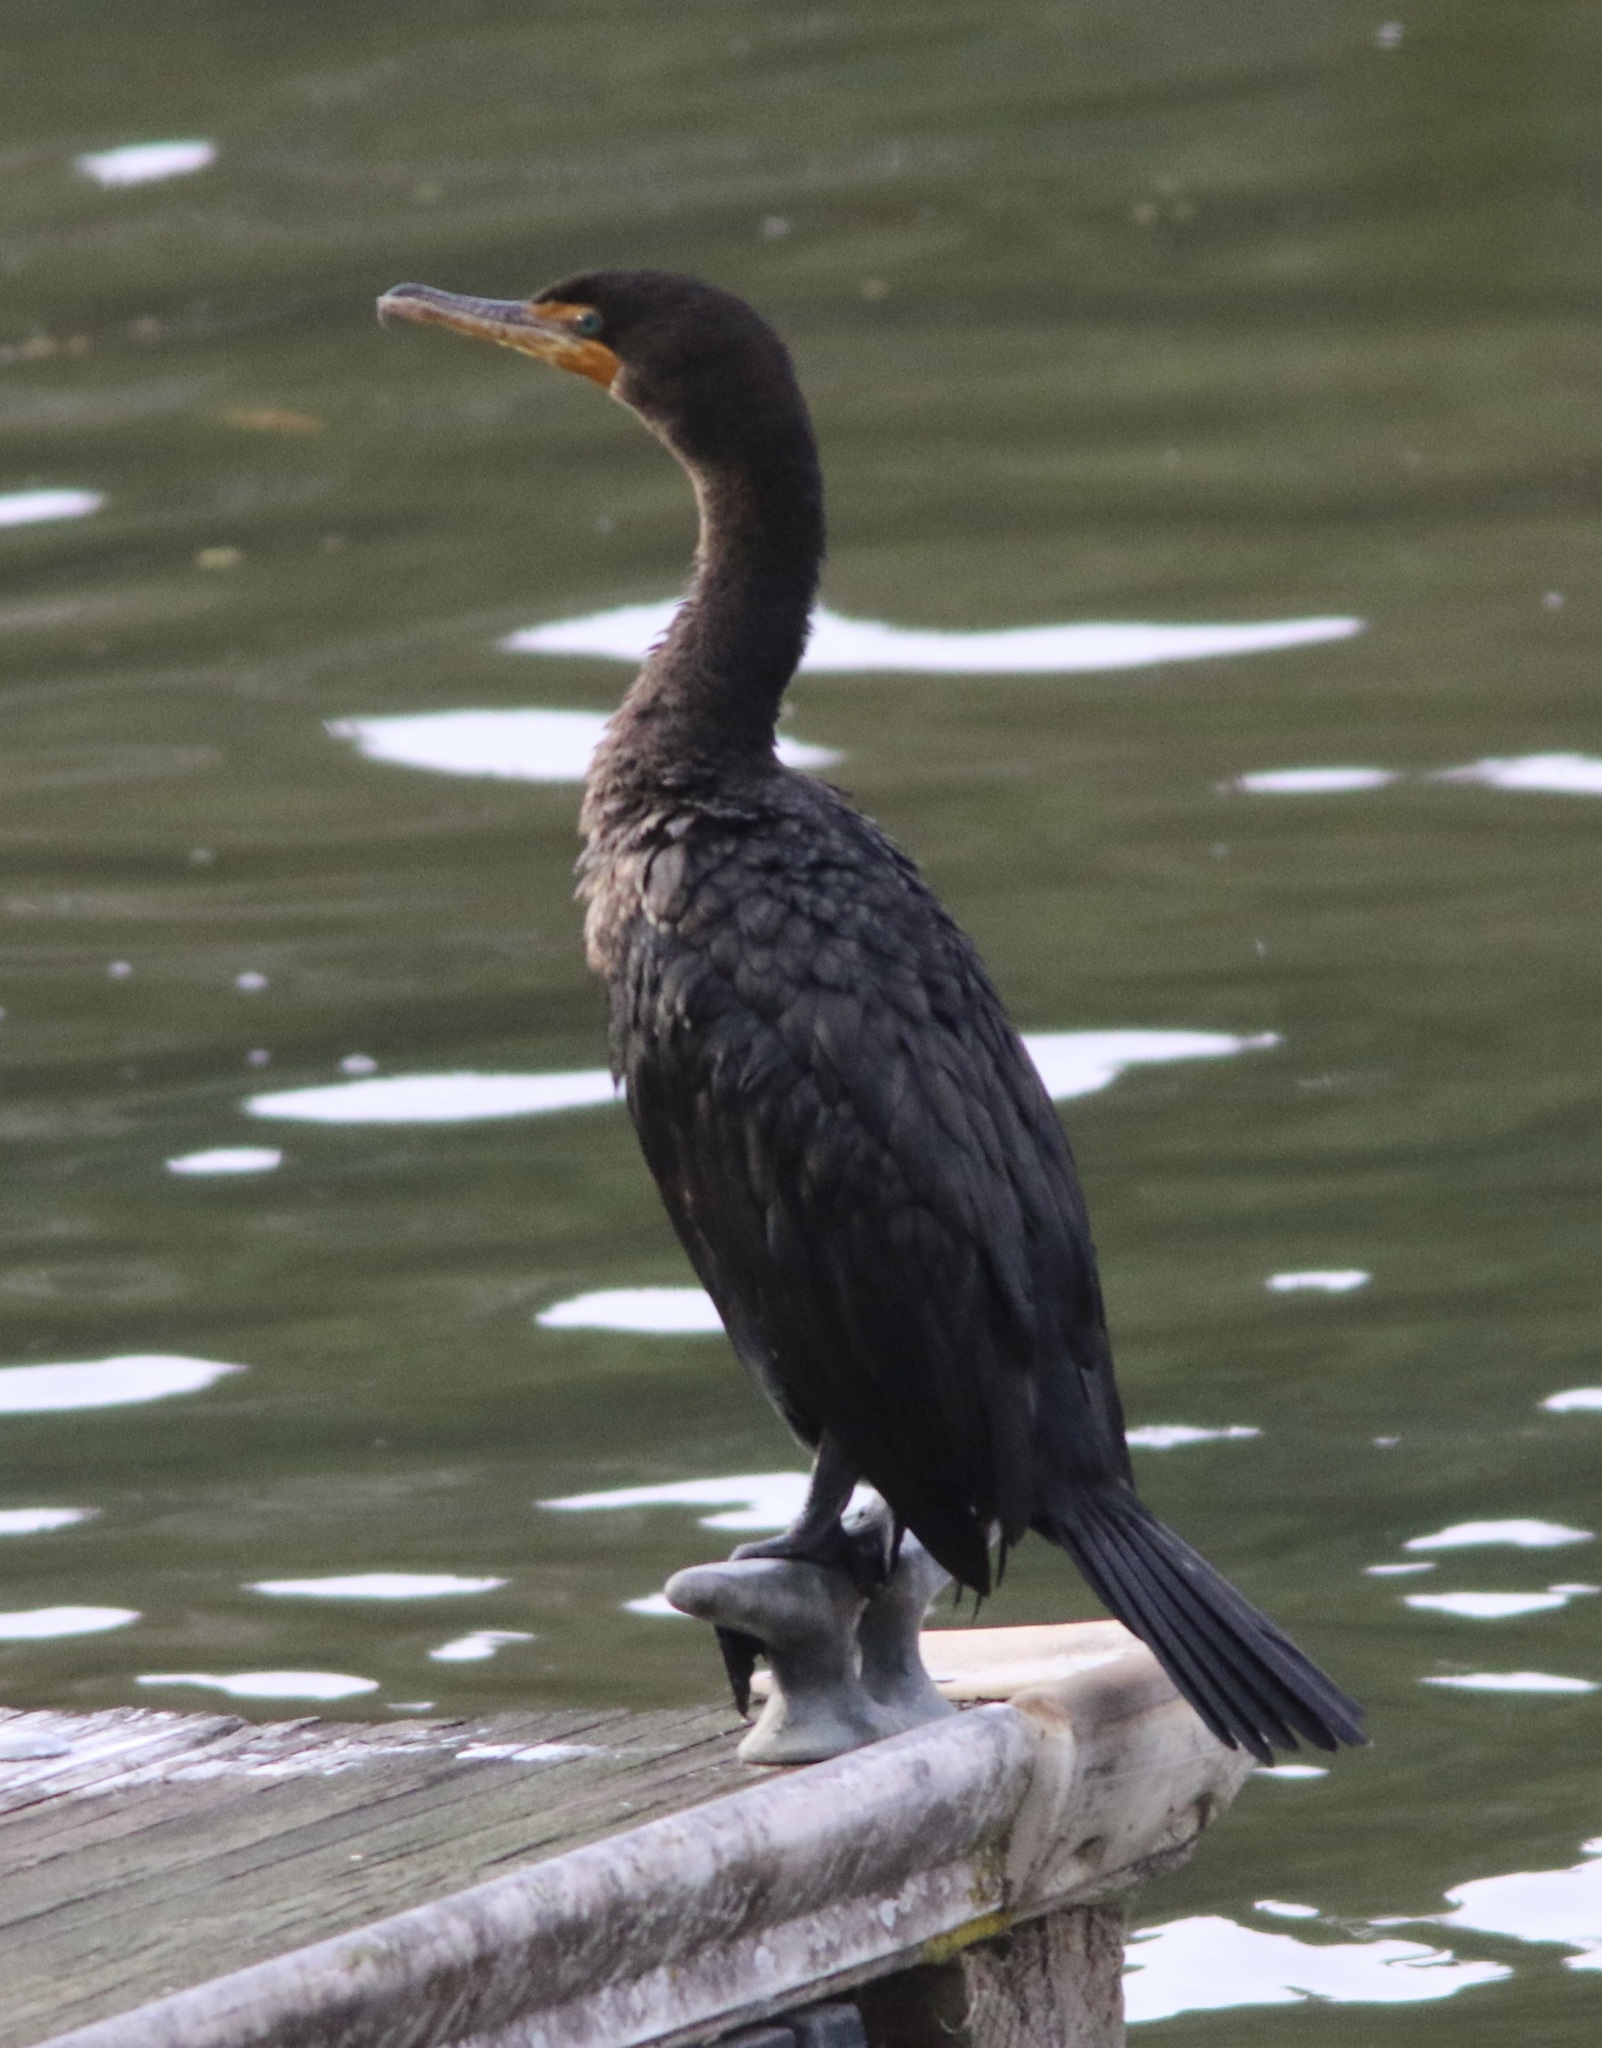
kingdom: Animalia
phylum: Chordata
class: Aves
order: Suliformes
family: Phalacrocoracidae
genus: Phalacrocorax
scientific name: Phalacrocorax auritus
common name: Double-crested cormorant
